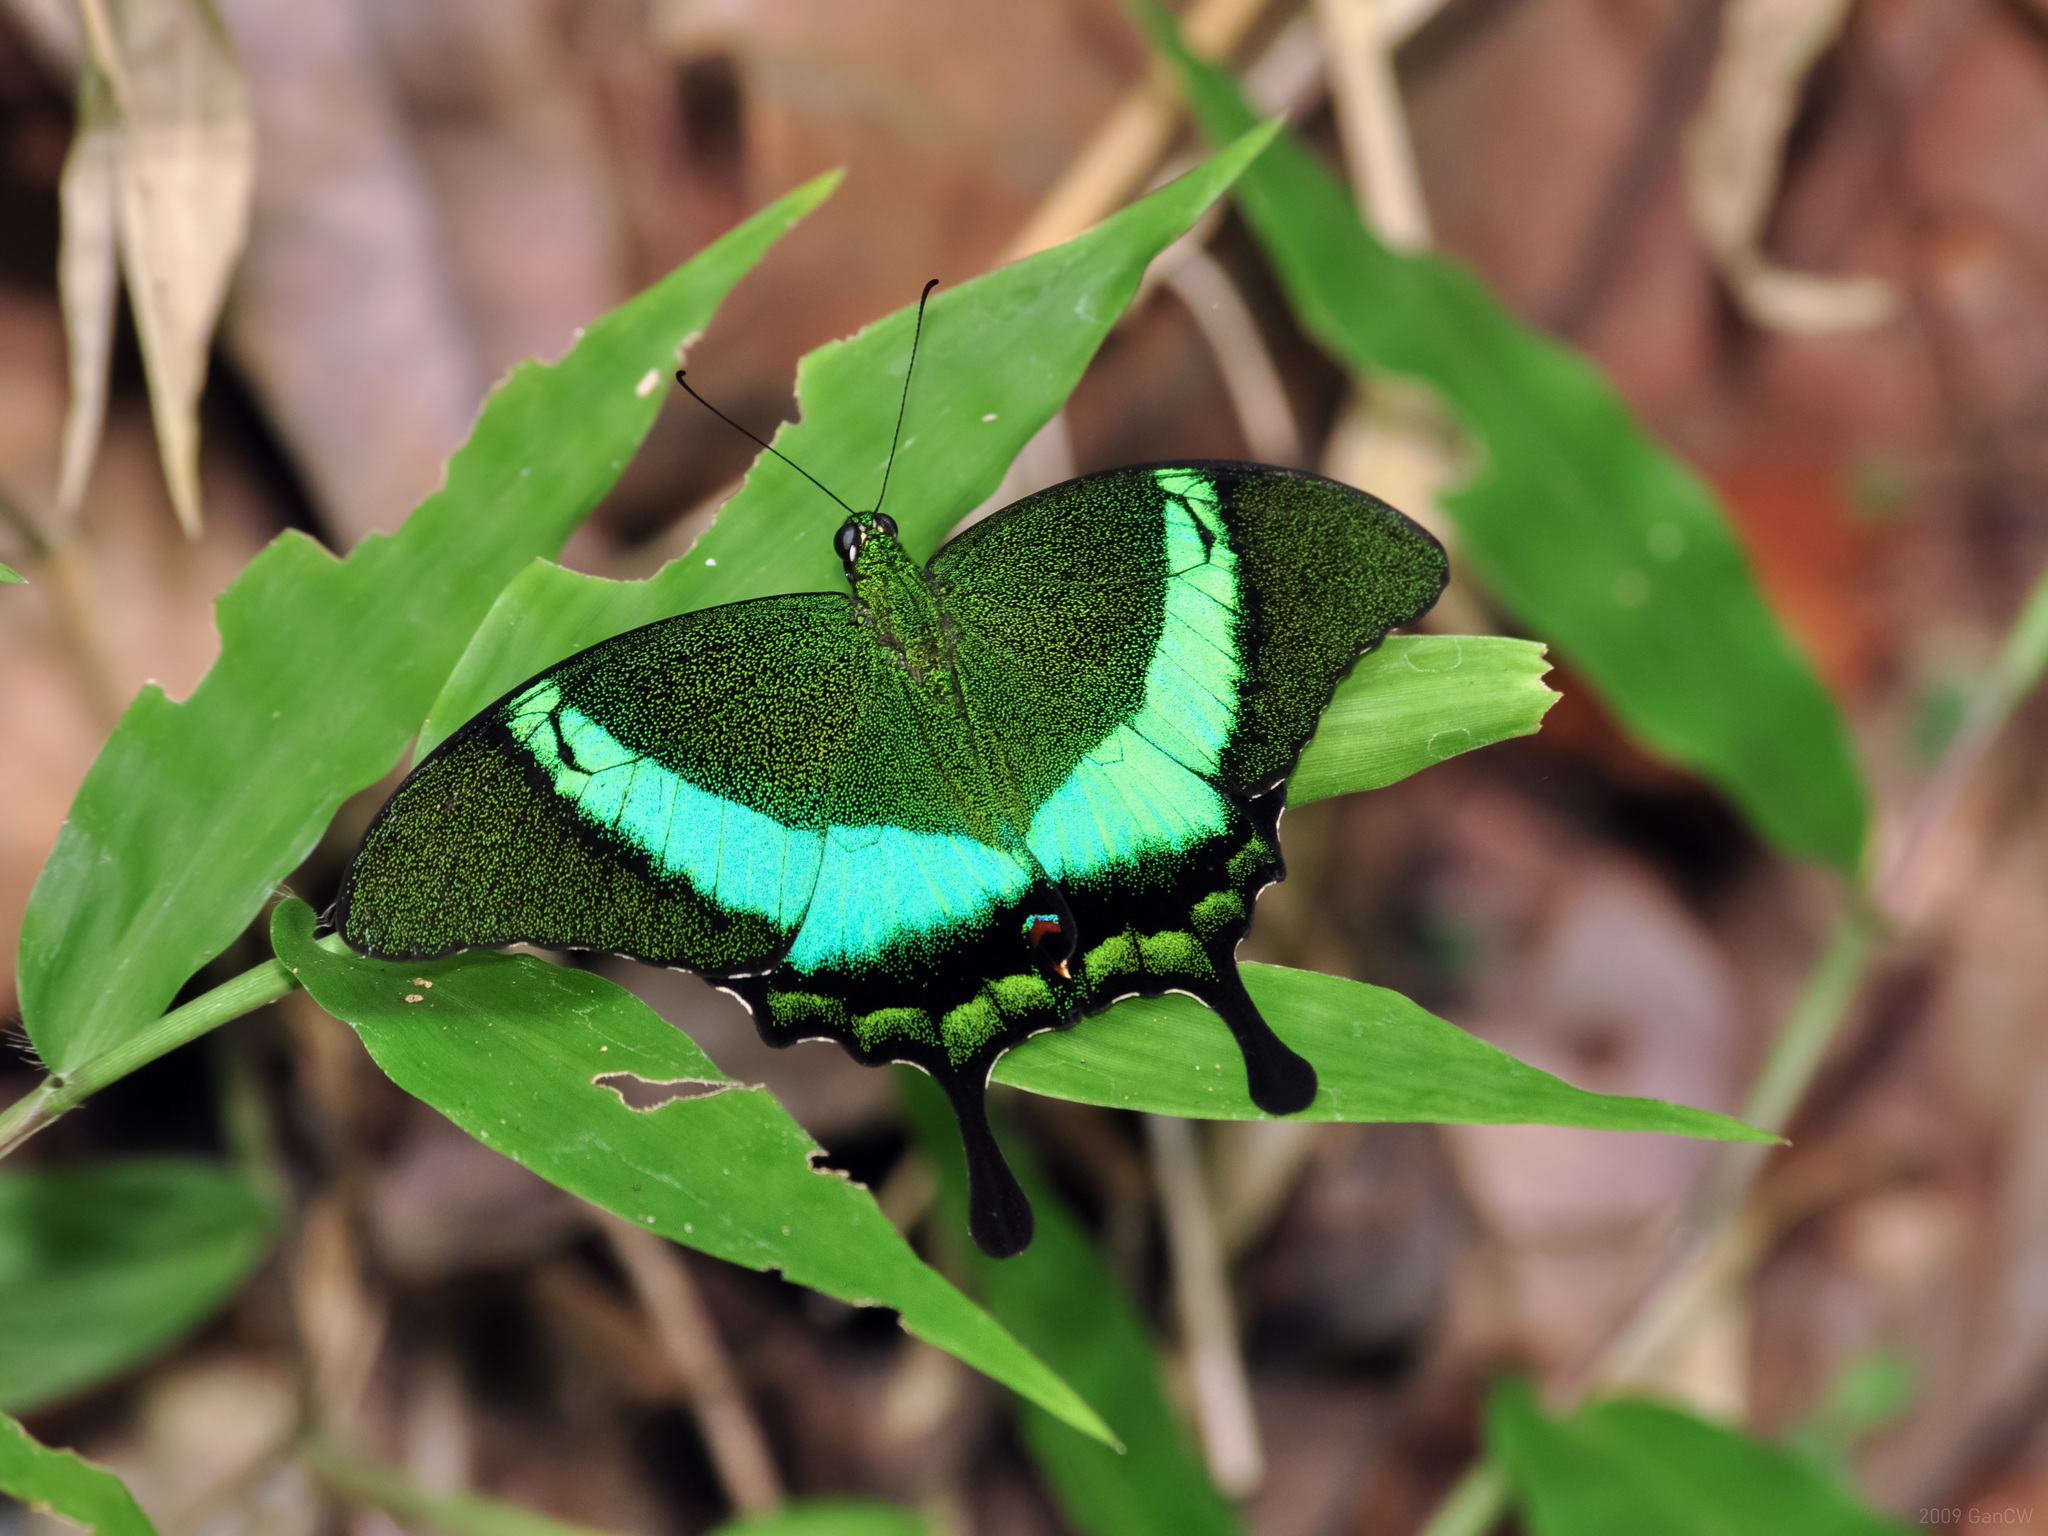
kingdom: Animalia
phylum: Arthropoda
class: Insecta
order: Lepidoptera
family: Papilionidae
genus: Papilio
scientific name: Papilio palinurus
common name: Banded peacock
